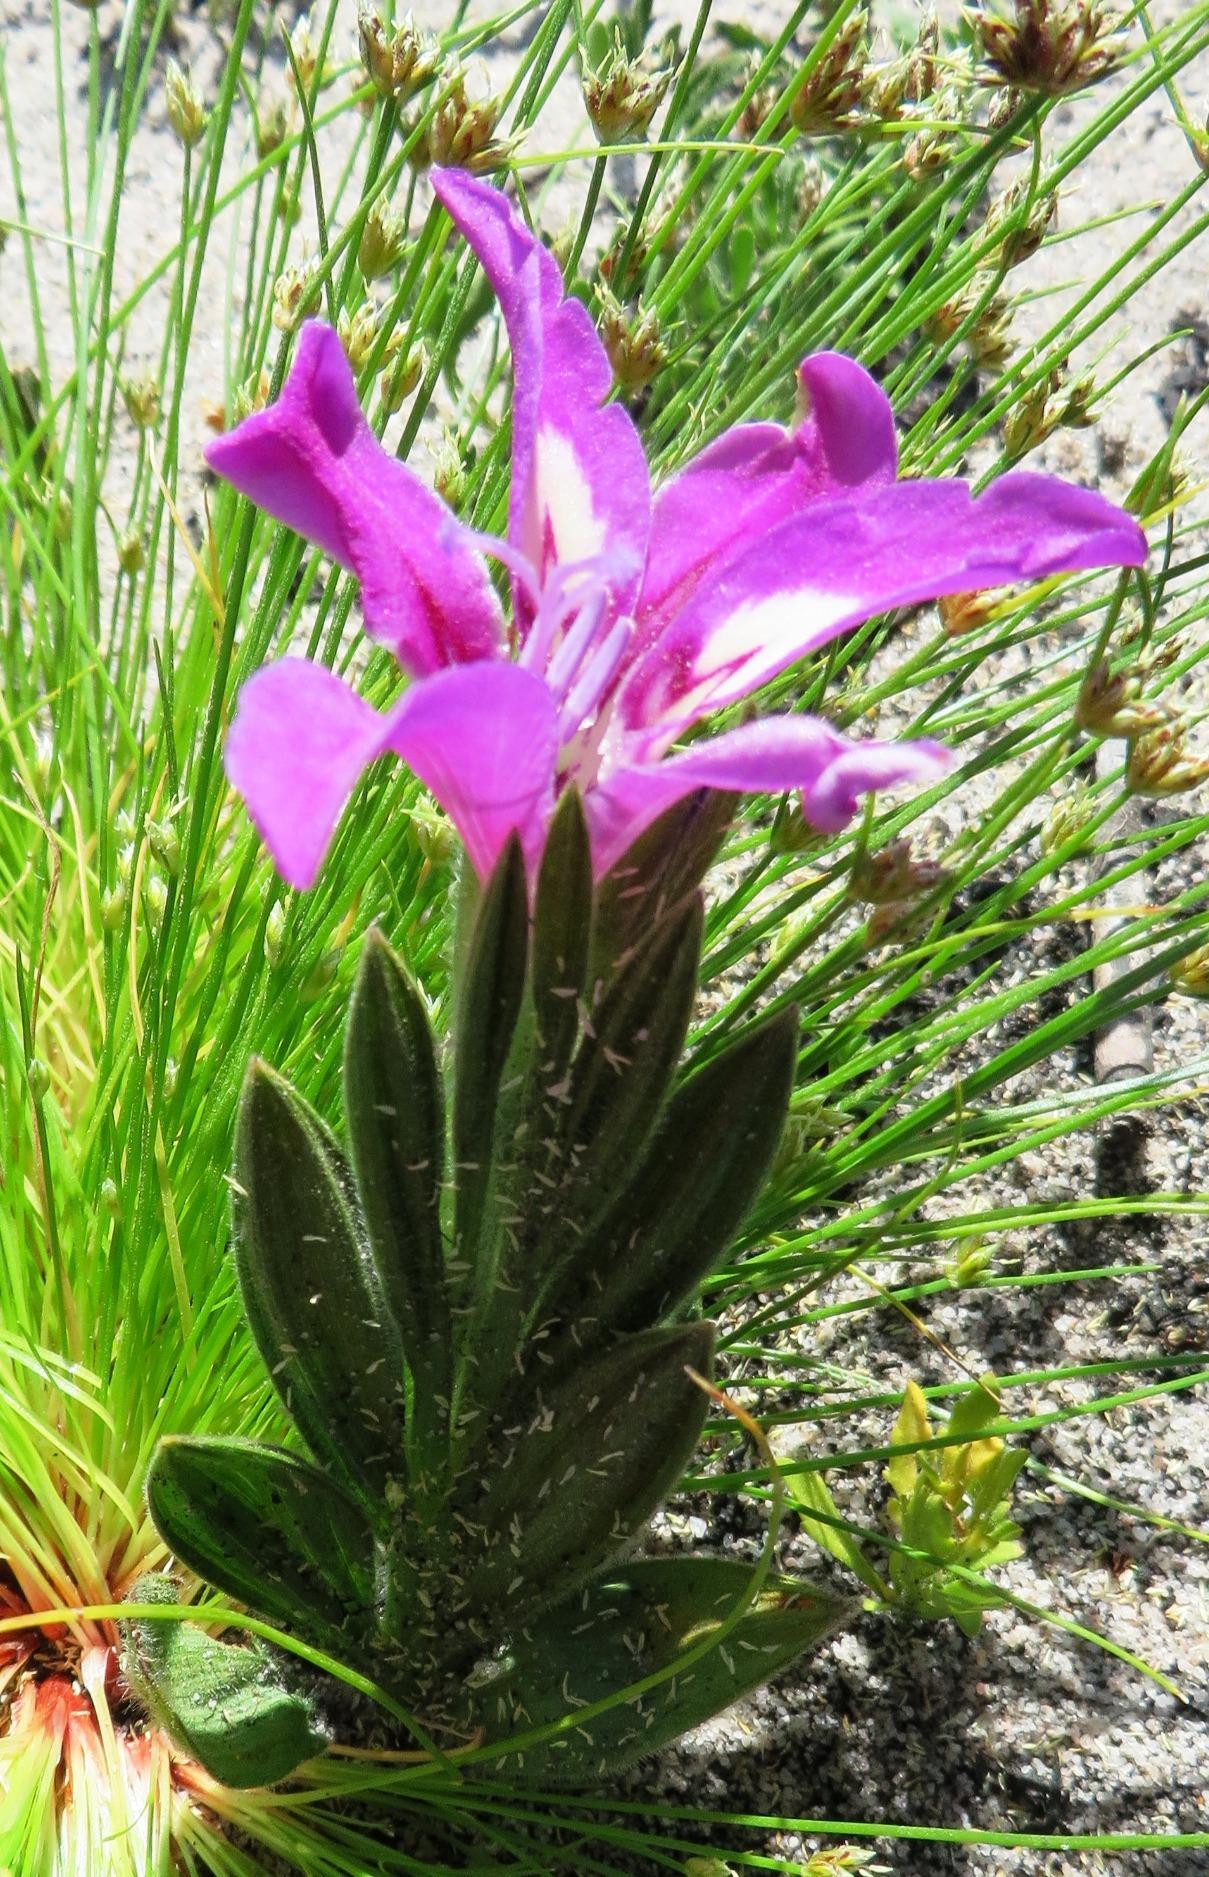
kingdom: Plantae
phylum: Tracheophyta
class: Liliopsida
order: Asparagales
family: Iridaceae
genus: Babiana
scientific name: Babiana nana
